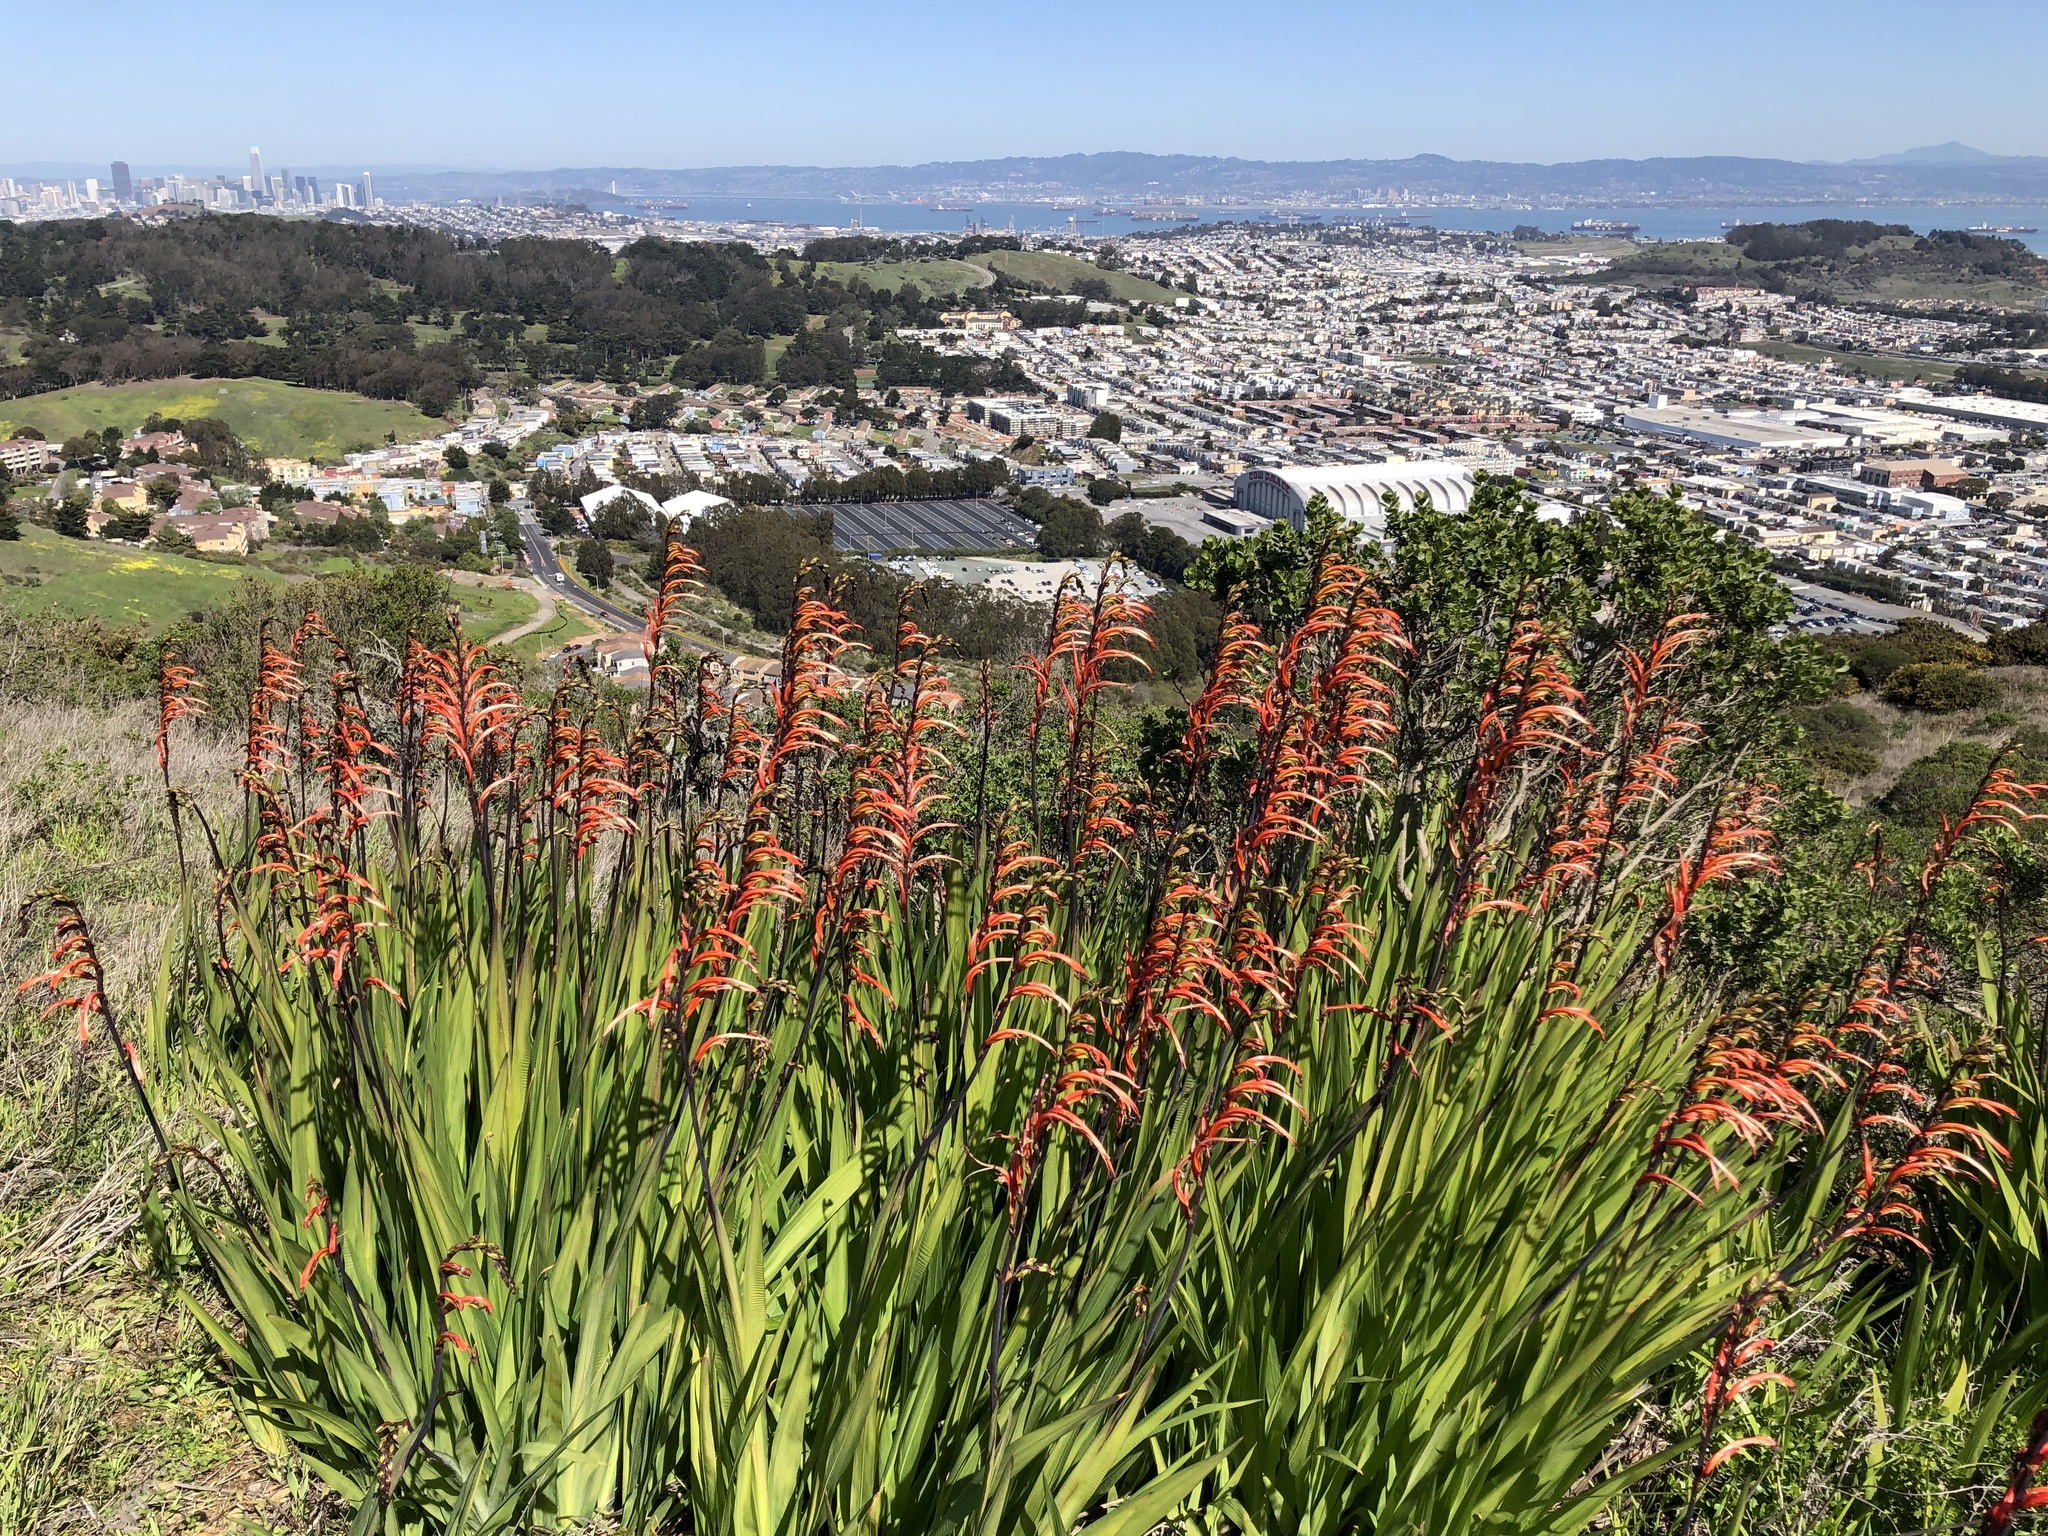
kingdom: Plantae
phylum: Tracheophyta
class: Liliopsida
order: Asparagales
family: Iridaceae
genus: Chasmanthe
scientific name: Chasmanthe bicolor
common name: Bicolor cobra lily
